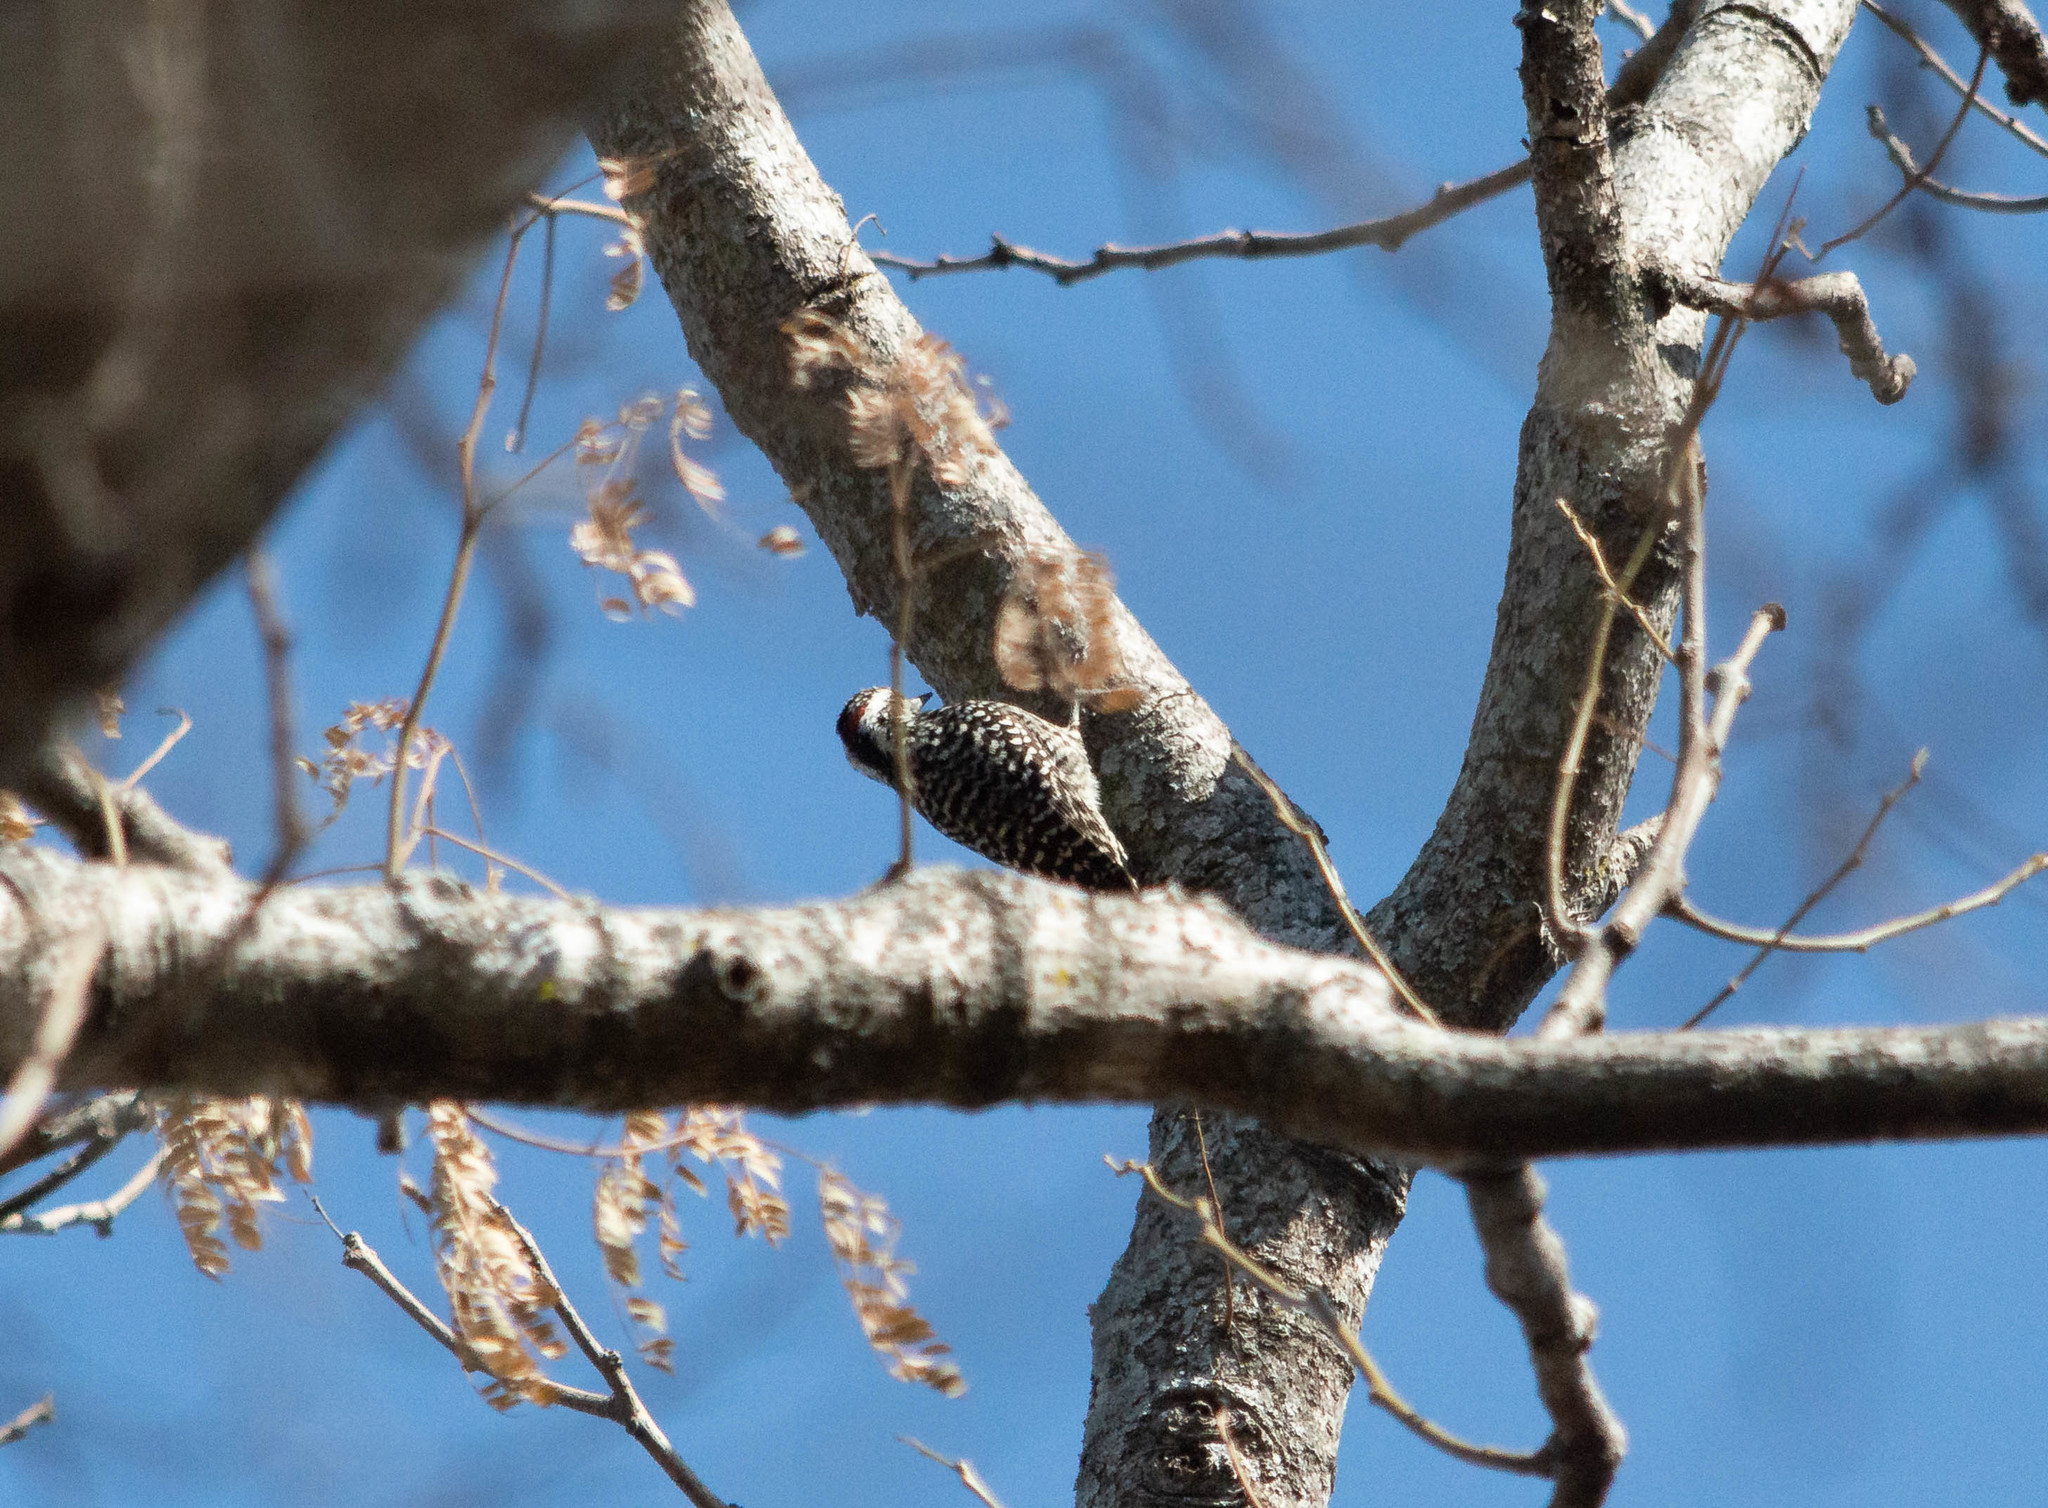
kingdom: Animalia
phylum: Chordata
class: Aves
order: Piciformes
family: Picidae
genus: Veniliornis
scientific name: Veniliornis mixtus
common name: Checkered woodpecker
